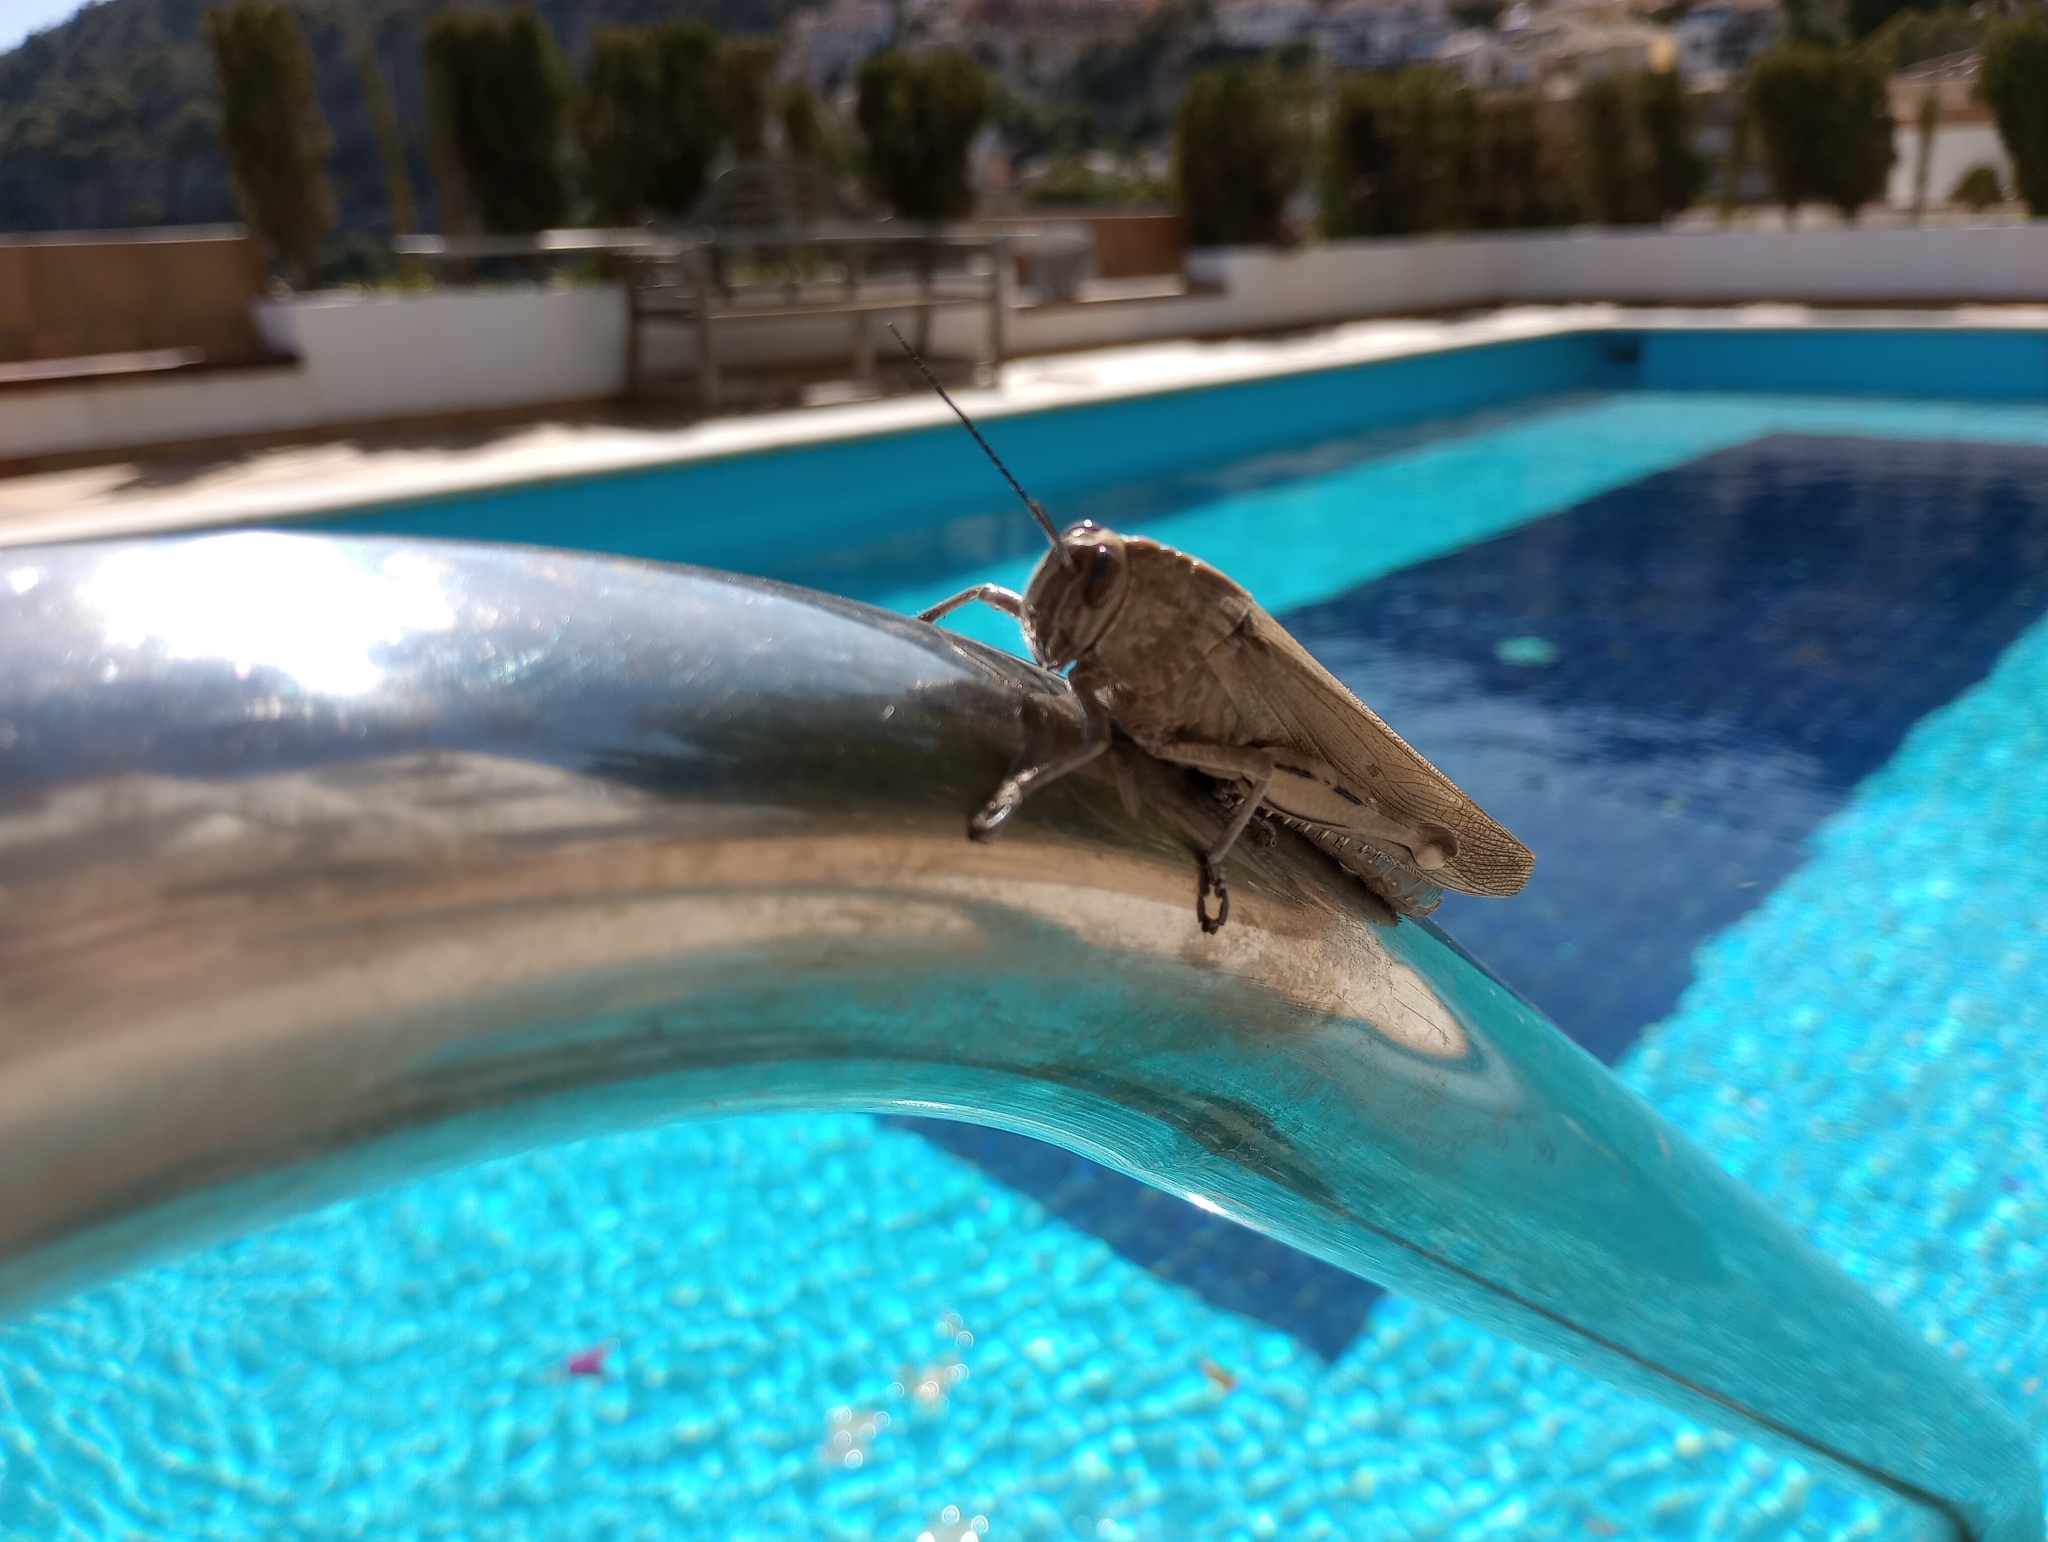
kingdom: Animalia
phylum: Arthropoda
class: Insecta
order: Orthoptera
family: Acrididae
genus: Anacridium
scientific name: Anacridium aegyptium
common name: Egyptian grasshopper
